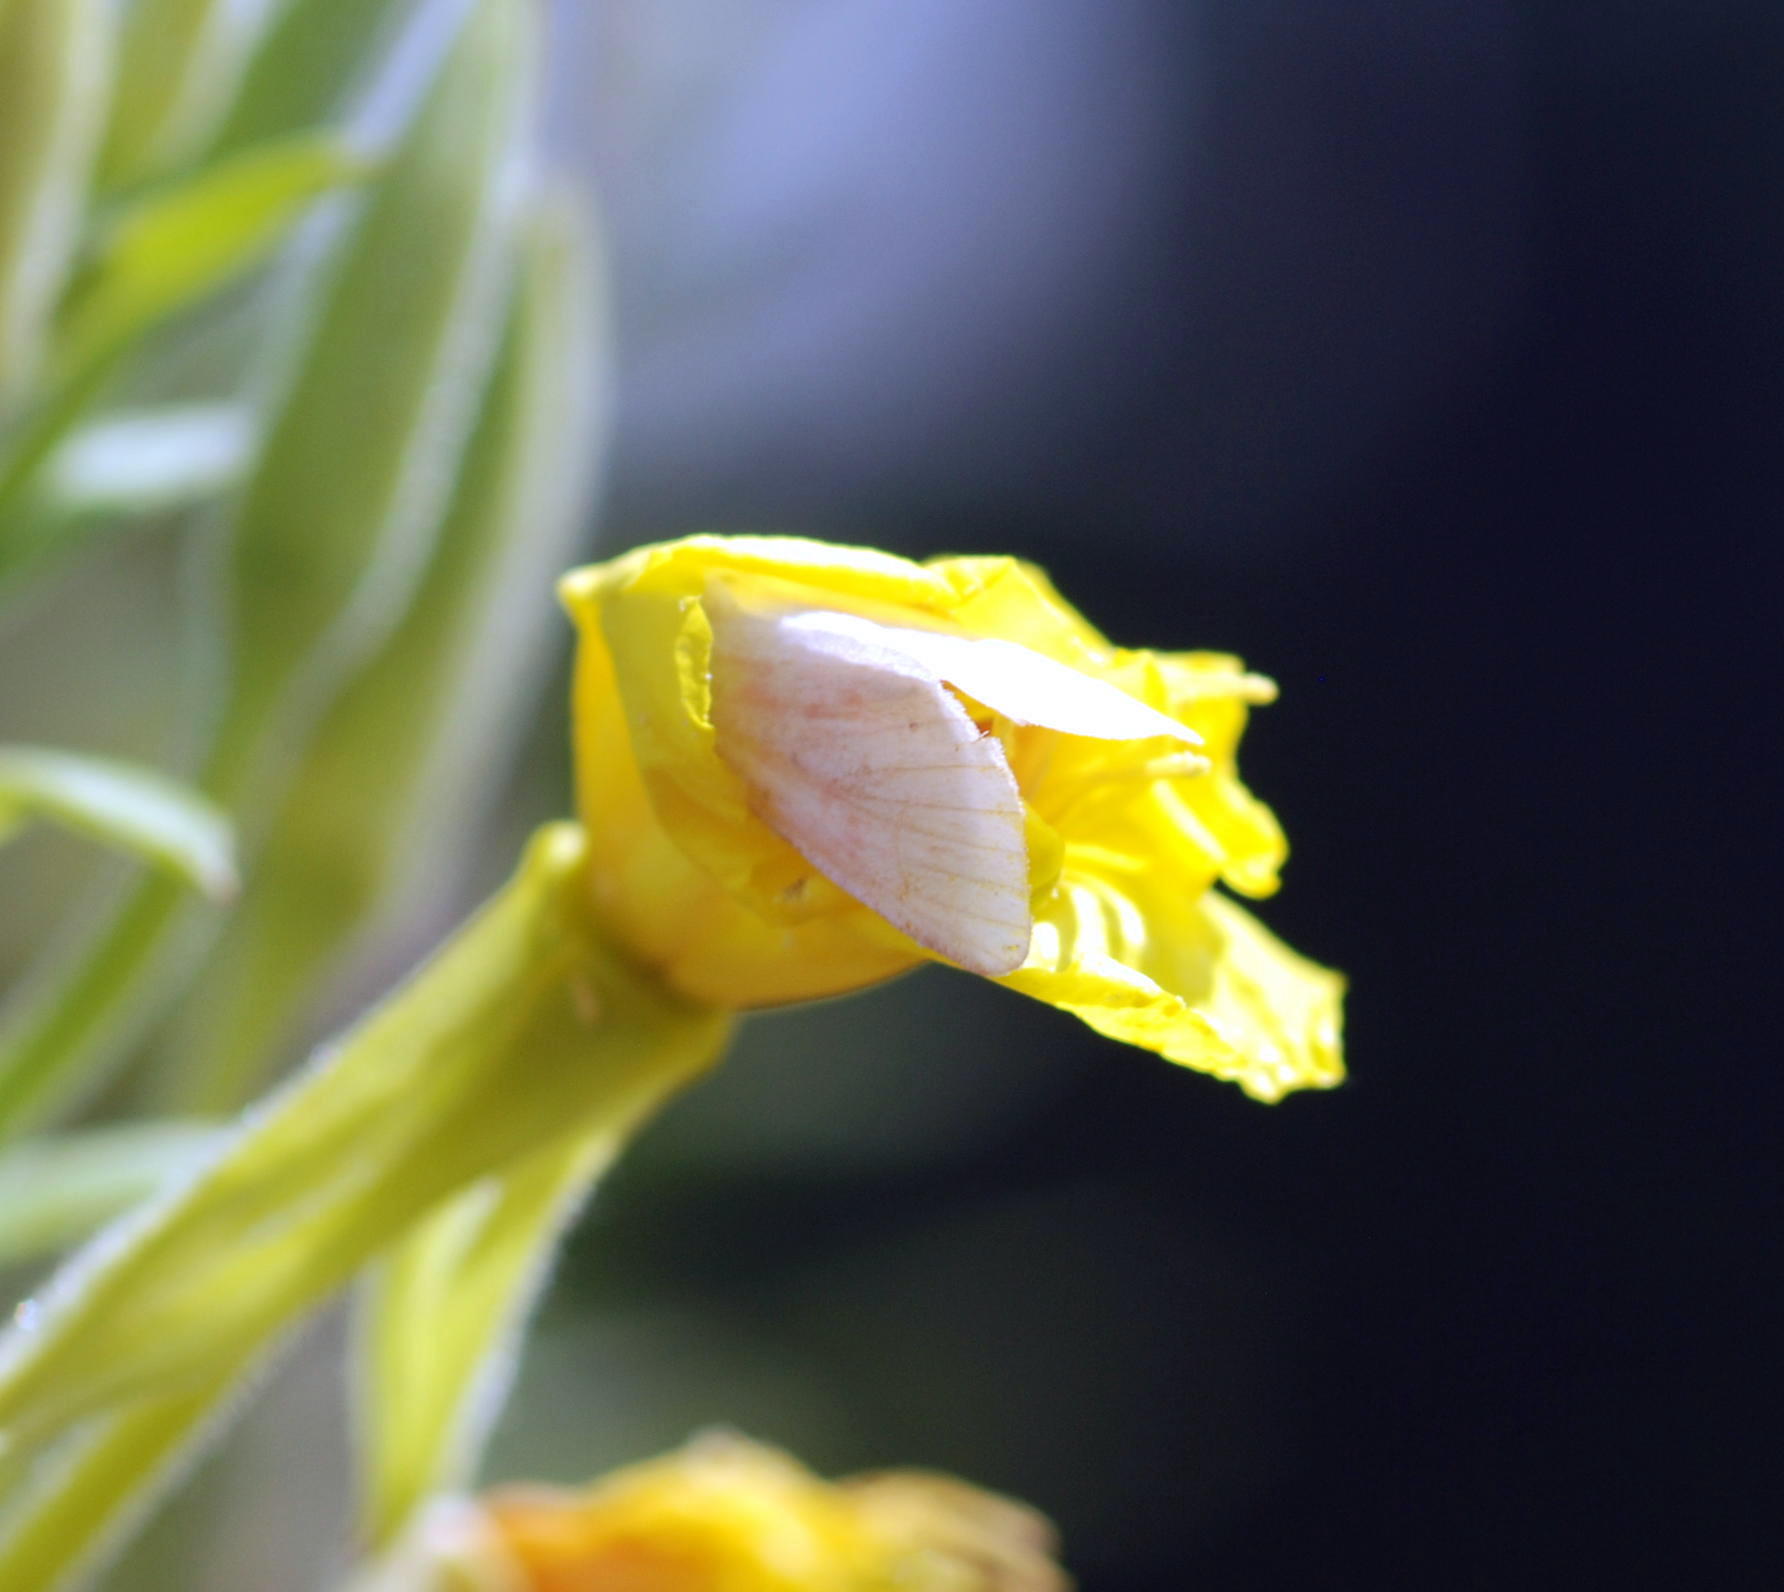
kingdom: Animalia
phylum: Arthropoda
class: Insecta
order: Lepidoptera
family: Noctuidae
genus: Schinia
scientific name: Schinia florida
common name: Primrose moth
